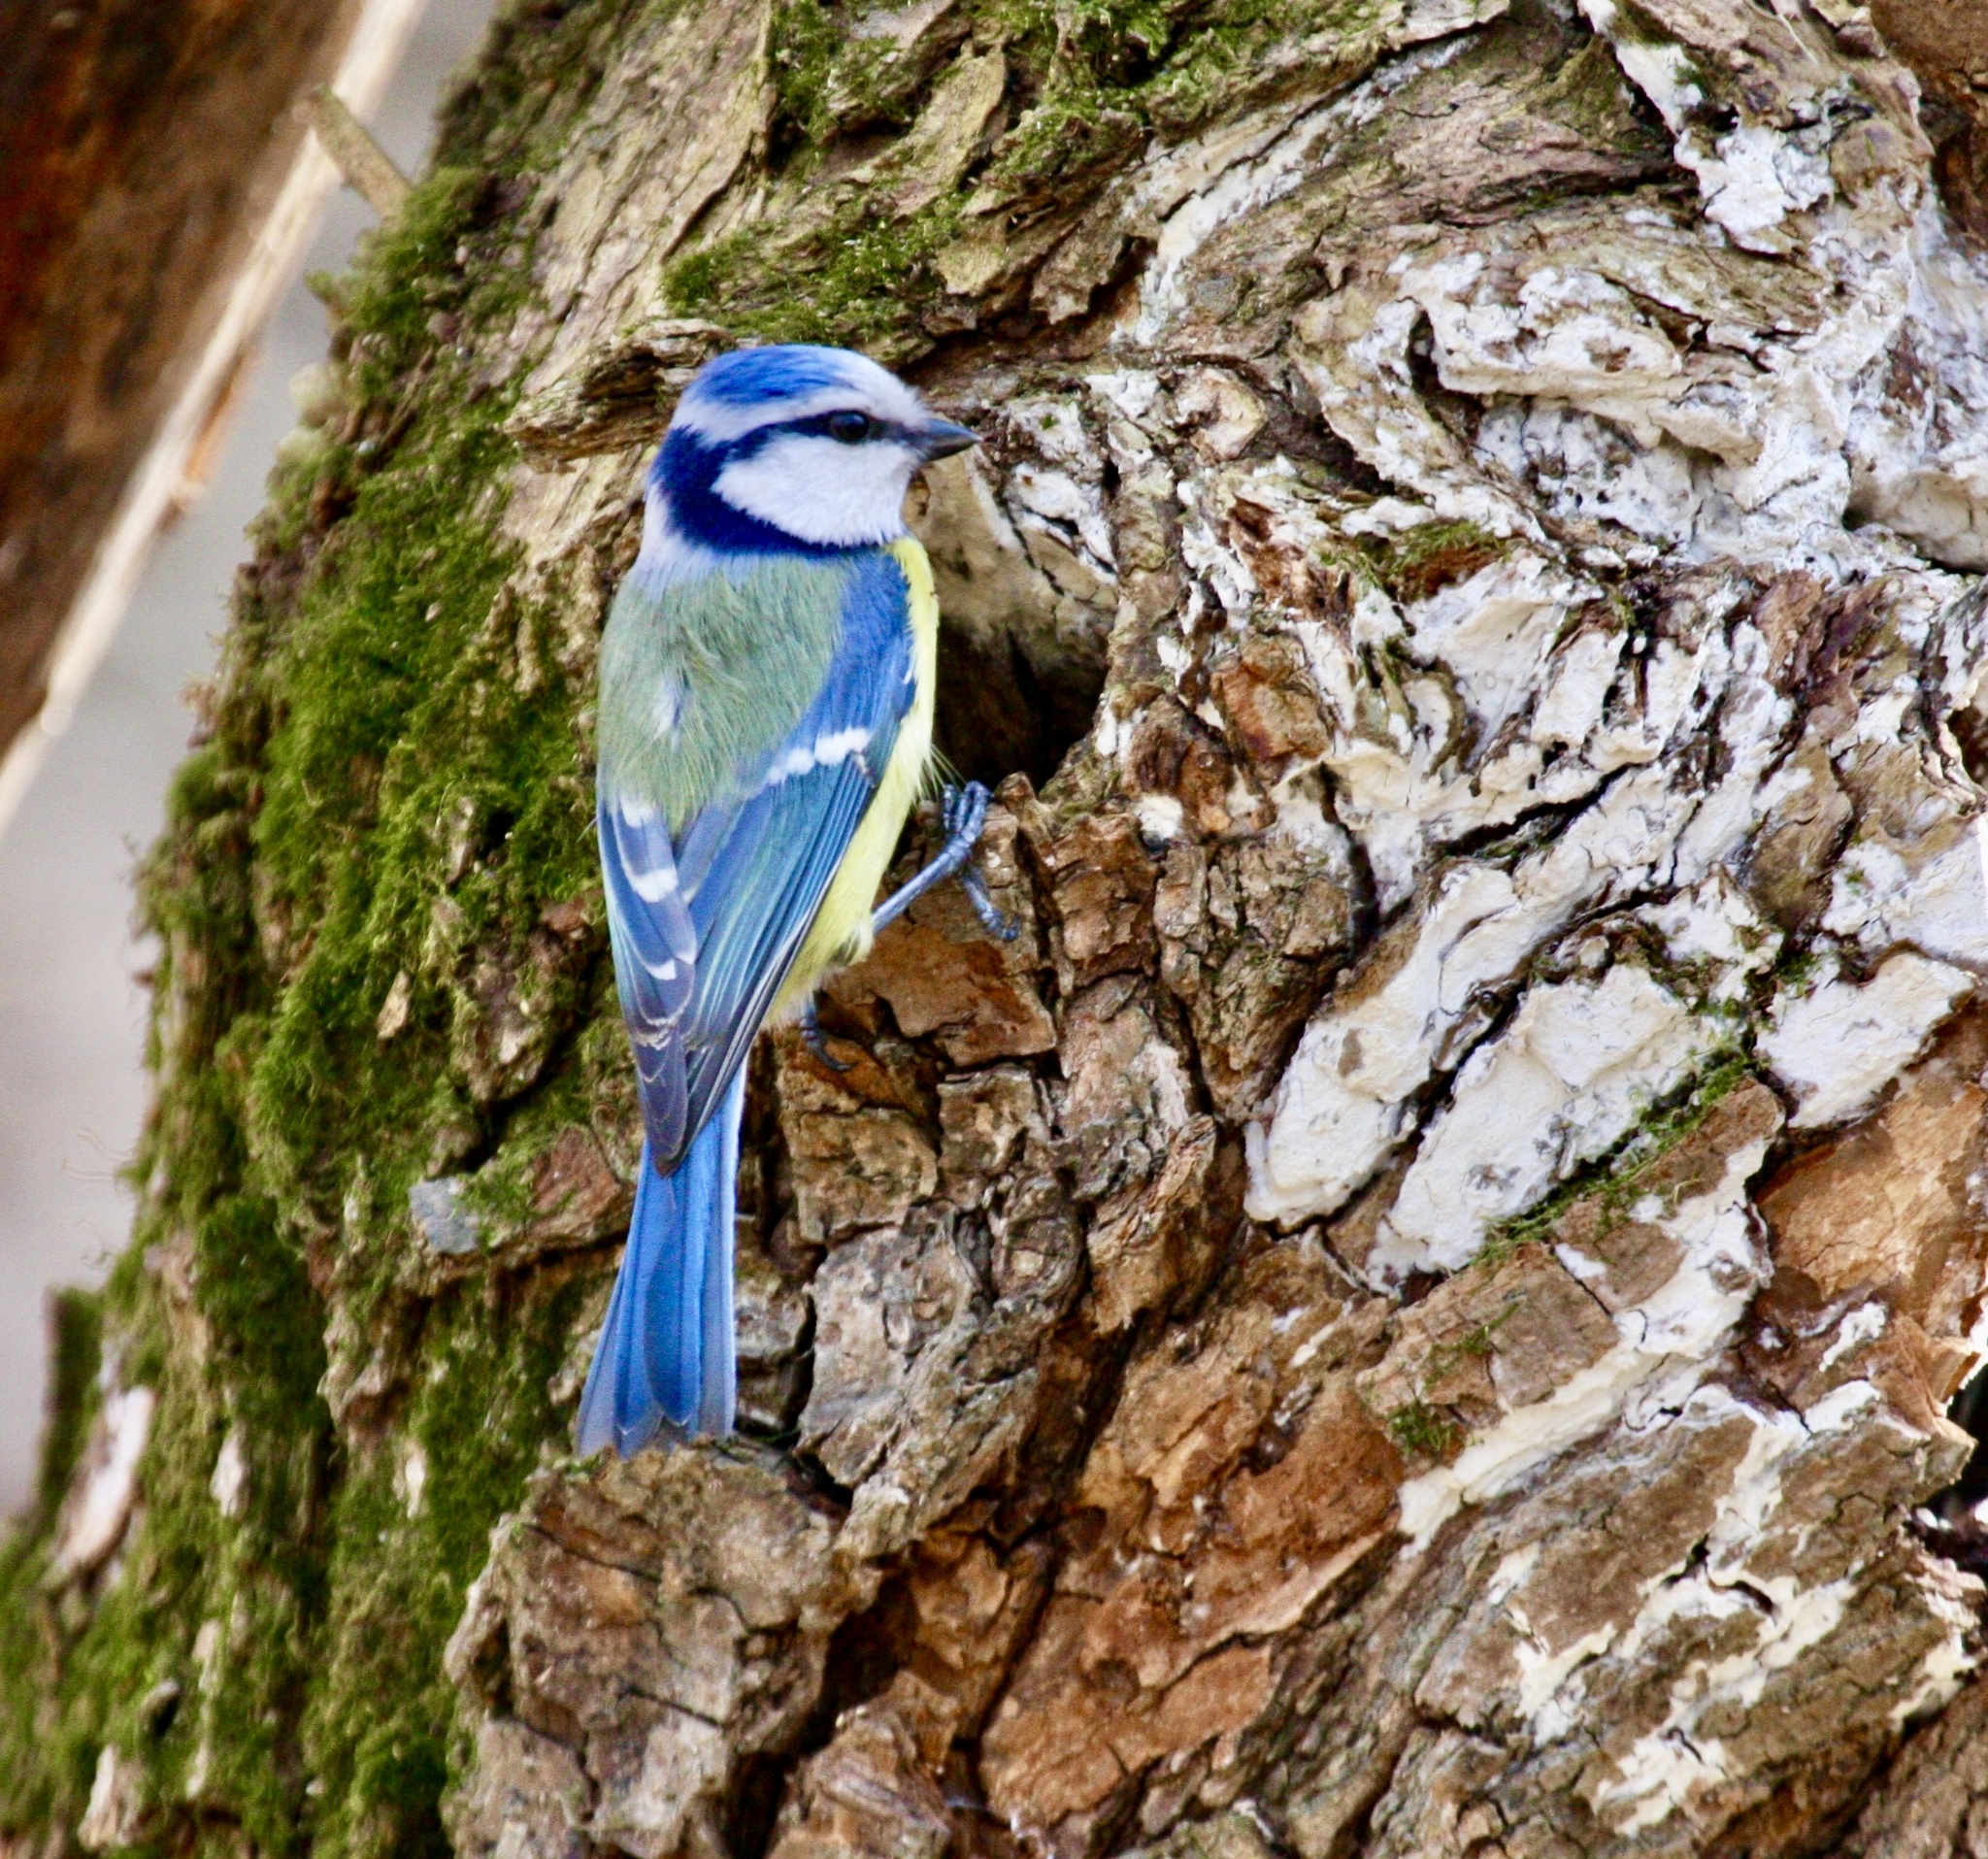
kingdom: Animalia
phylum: Chordata
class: Aves
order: Passeriformes
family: Paridae
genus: Cyanistes
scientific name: Cyanistes caeruleus
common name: Eurasian blue tit
